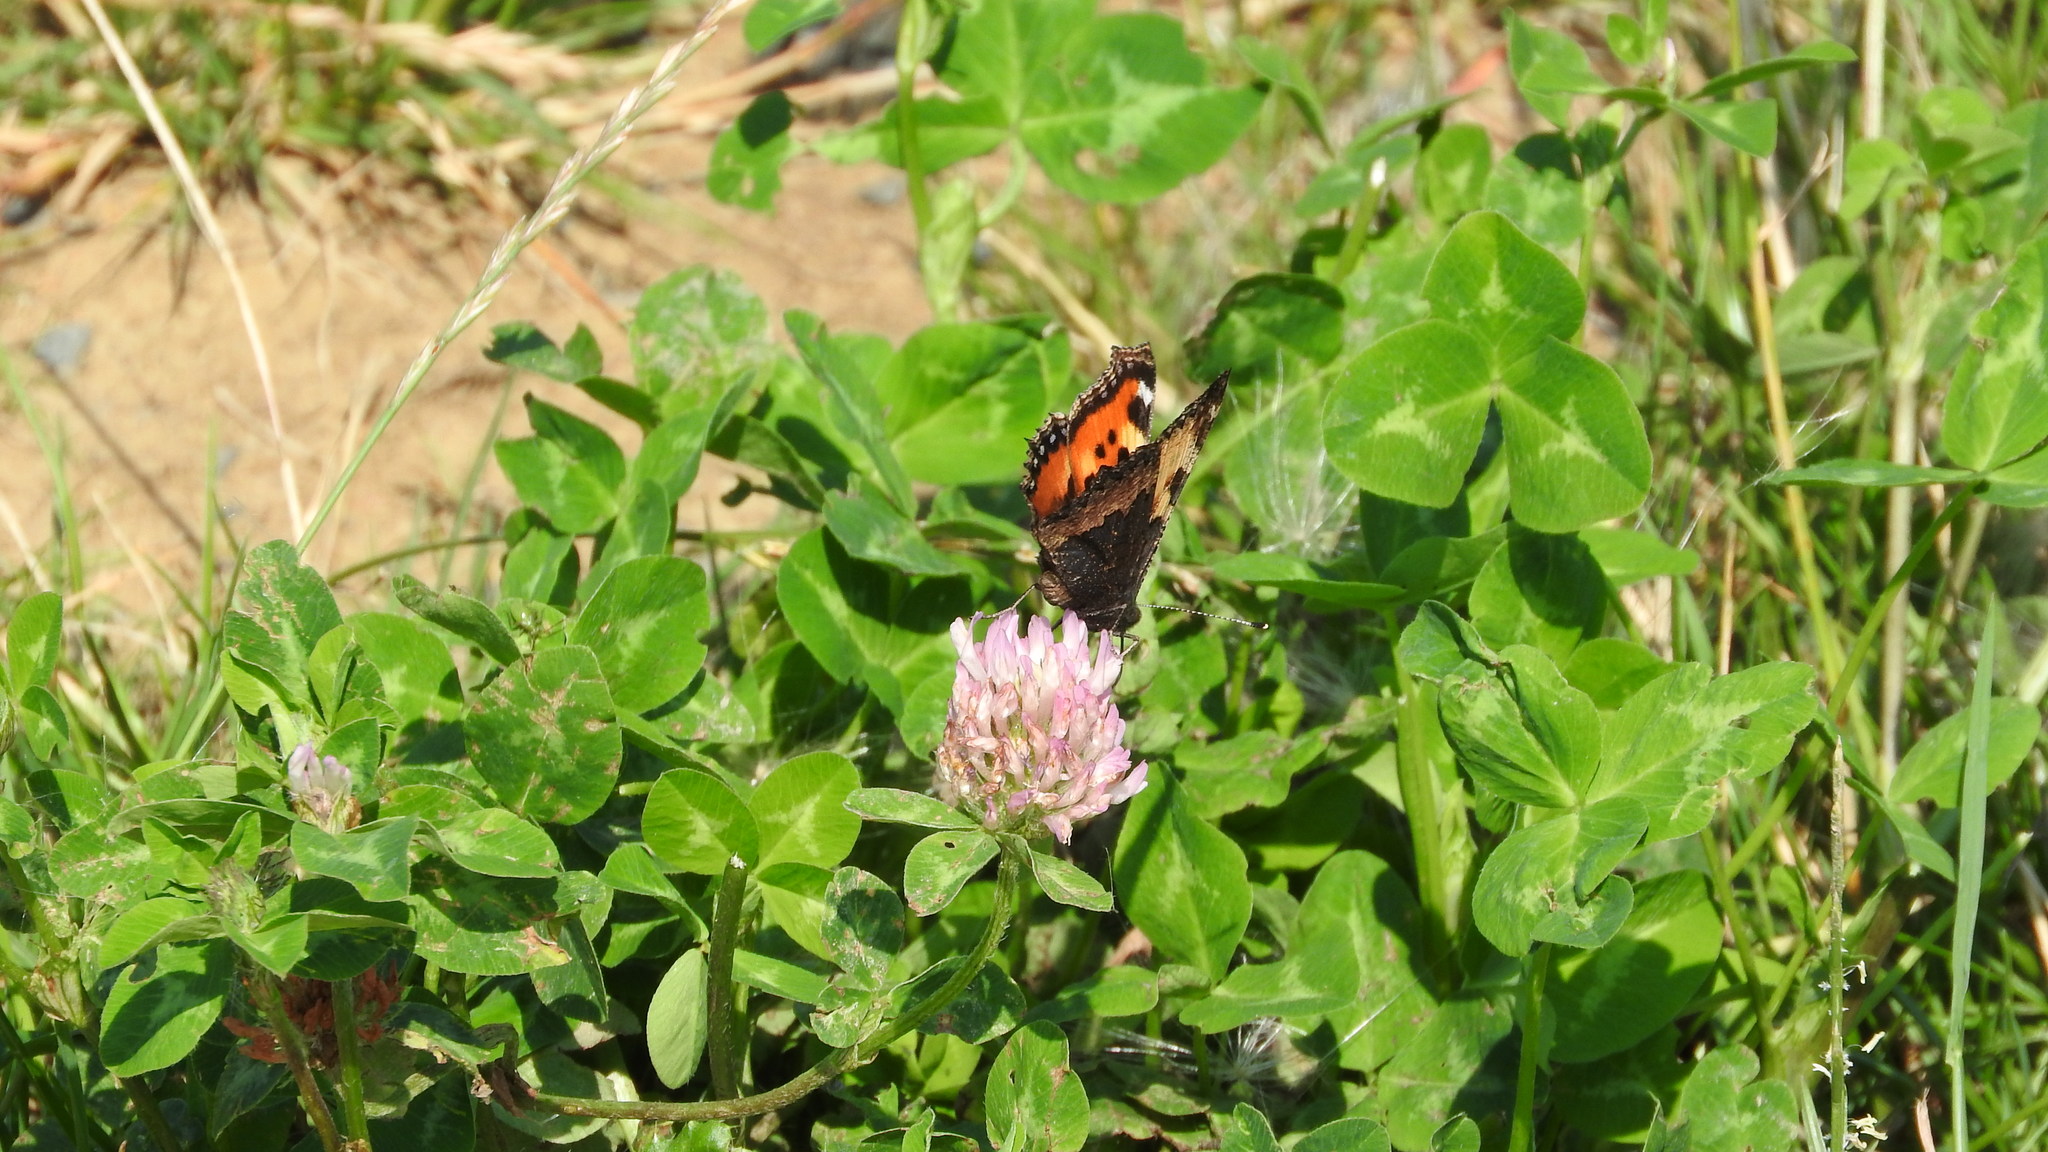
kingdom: Animalia
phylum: Arthropoda
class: Insecta
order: Lepidoptera
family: Nymphalidae
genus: Aglais
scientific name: Aglais urticae
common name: Small tortoiseshell
